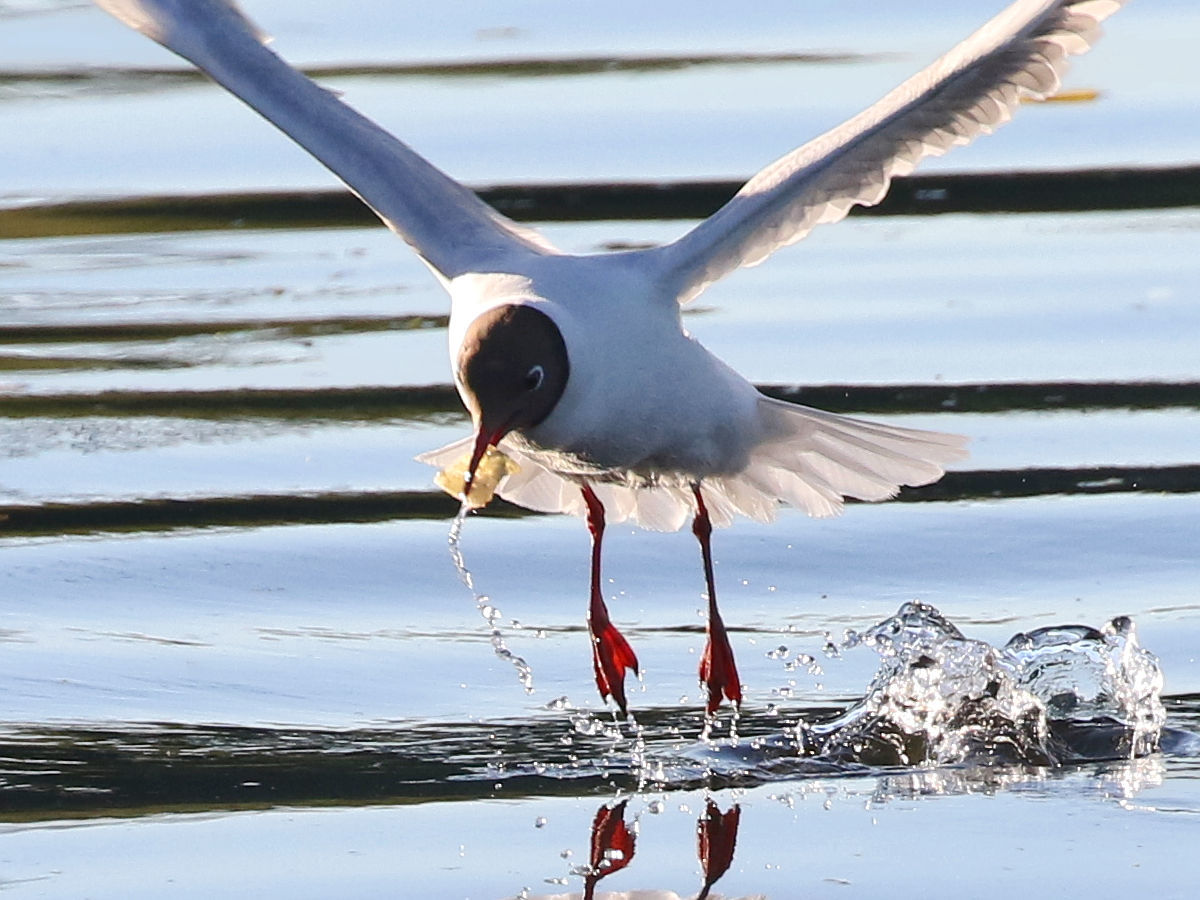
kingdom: Animalia
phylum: Chordata
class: Aves
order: Charadriiformes
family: Laridae
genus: Chroicocephalus
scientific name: Chroicocephalus ridibundus
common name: Black-headed gull
